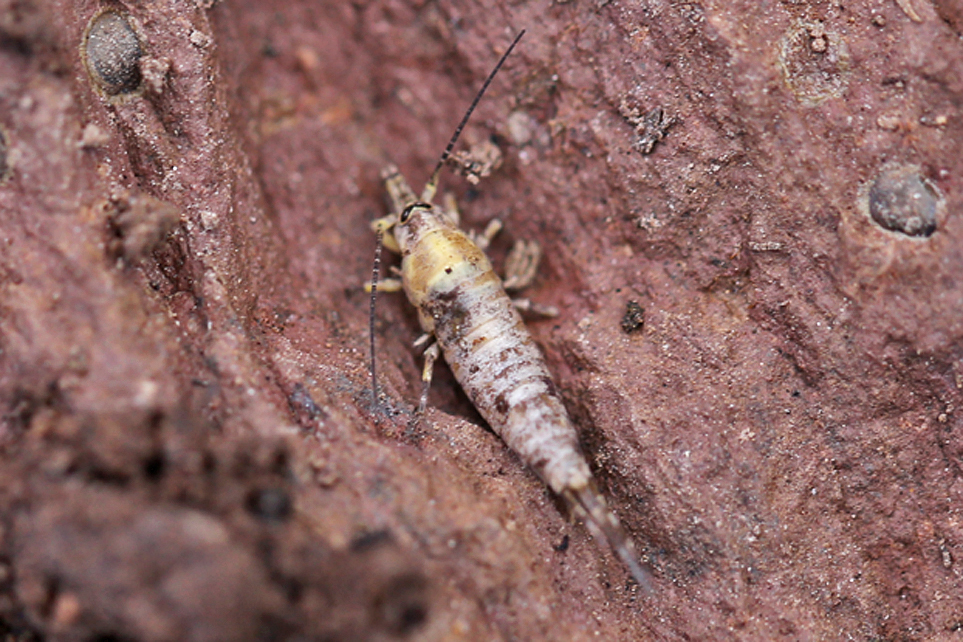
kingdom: Animalia
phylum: Arthropoda
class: Insecta
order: Archaeognatha
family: Machilidae
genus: Trigoniophthalmus
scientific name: Trigoniophthalmus alternatus
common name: Jumping bristletail
